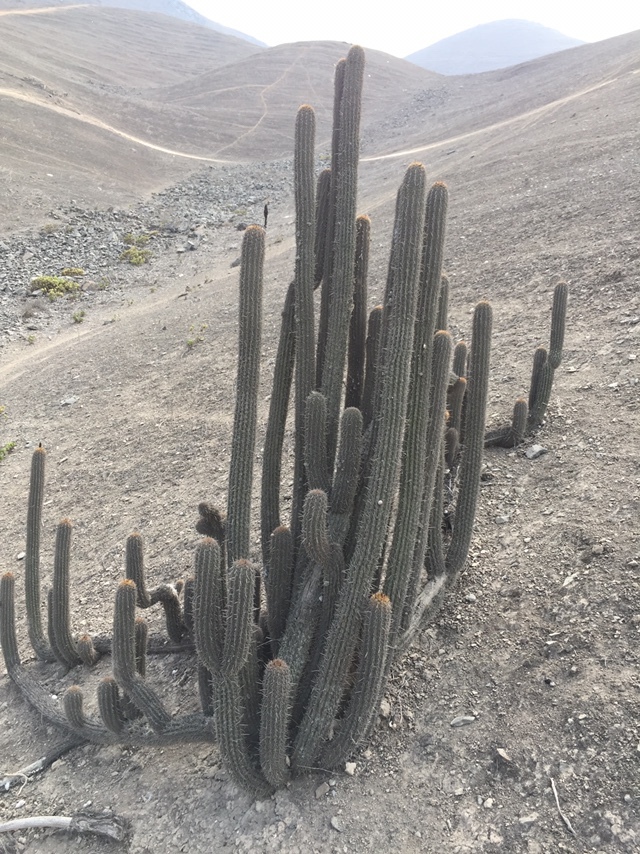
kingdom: Plantae
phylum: Tracheophyta
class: Magnoliopsida
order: Caryophyllales
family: Cactaceae
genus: Haageocereus
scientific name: Haageocereus acranthus
